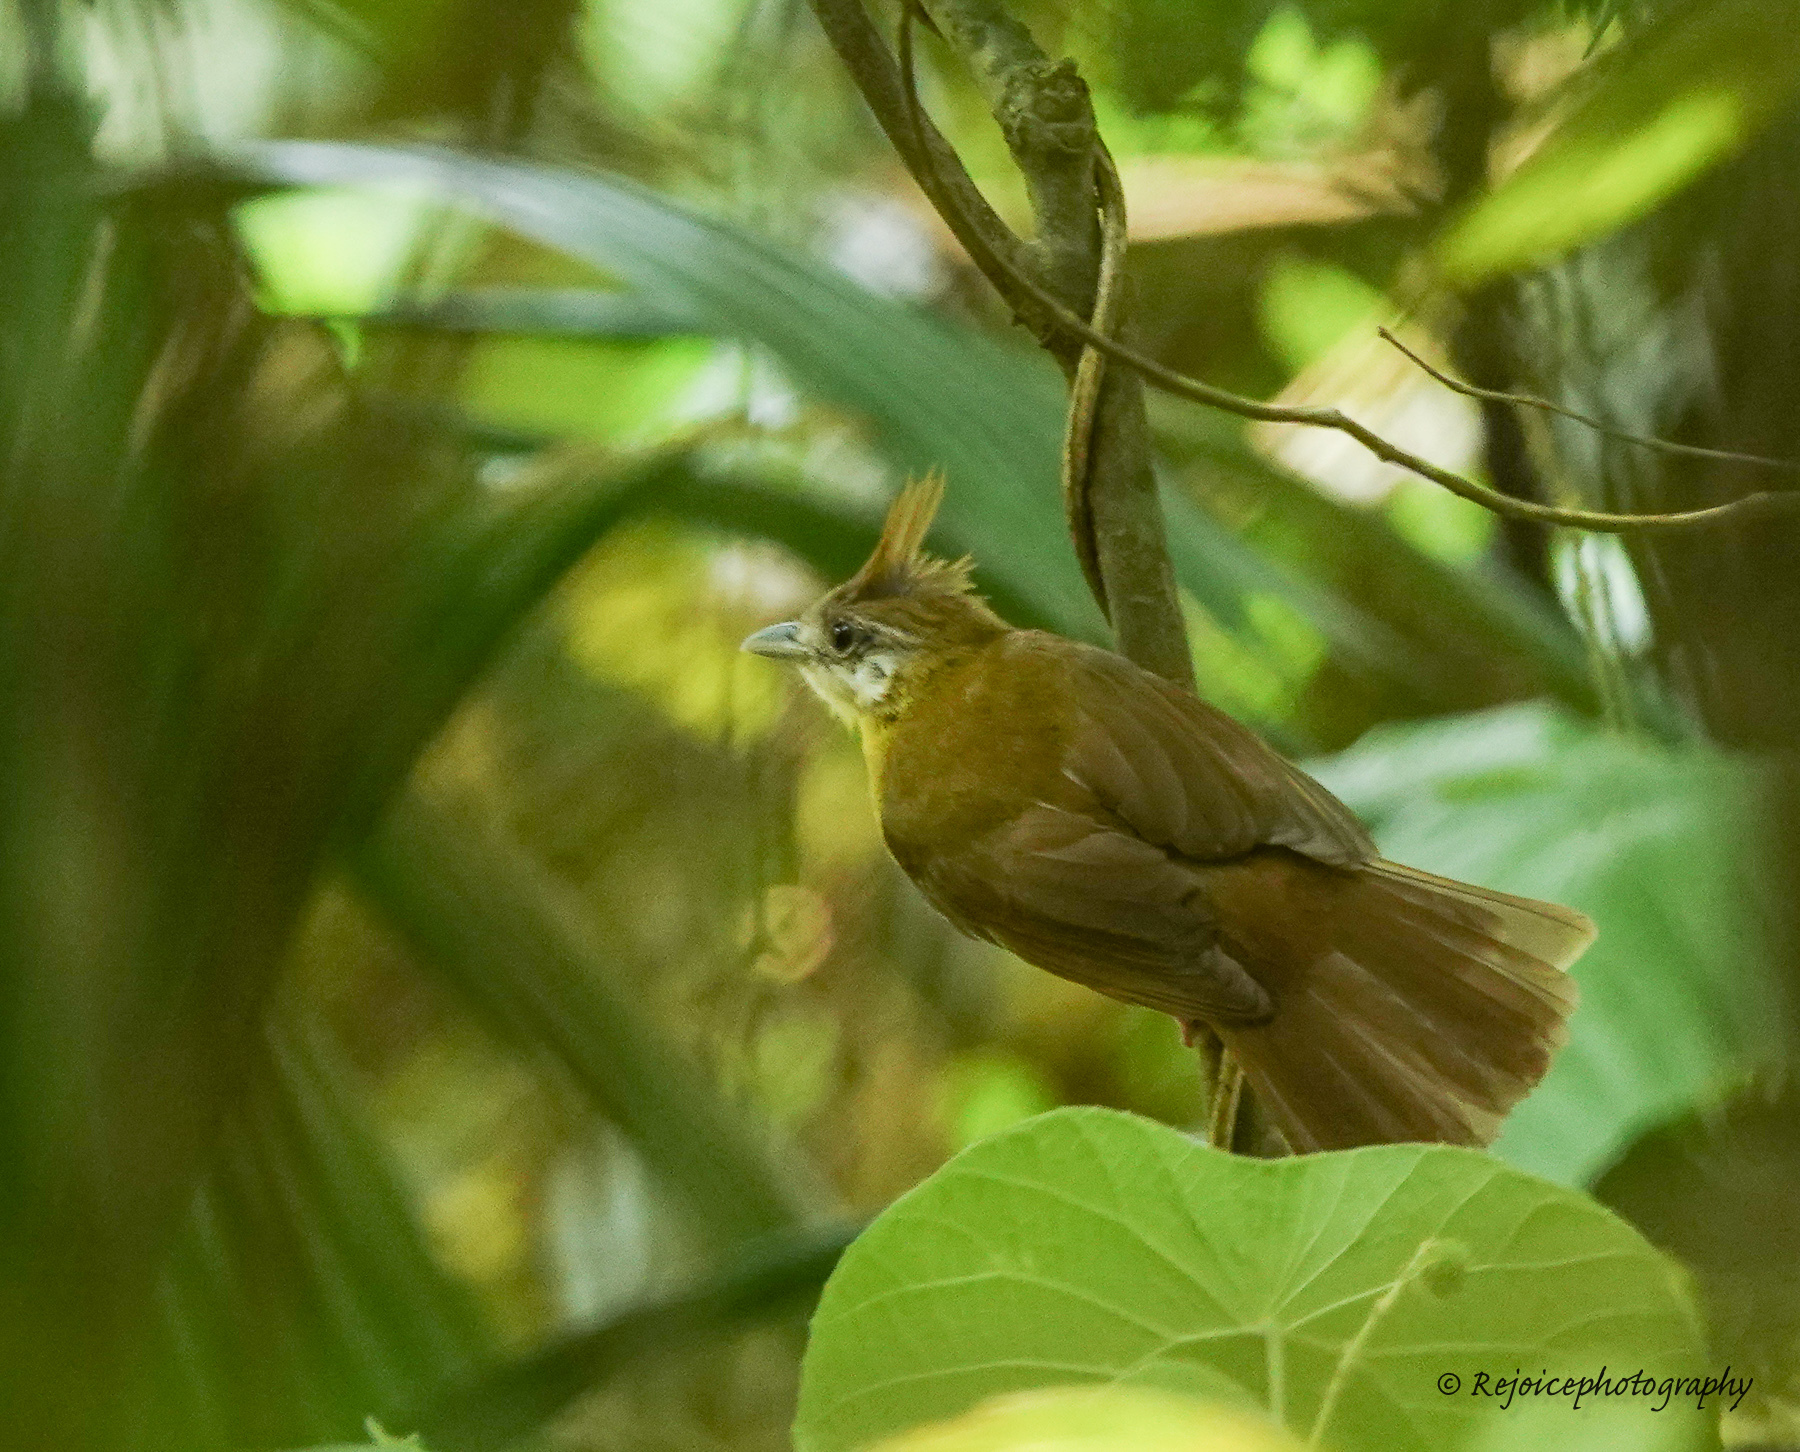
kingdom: Animalia
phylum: Chordata
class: Aves
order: Passeriformes
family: Pycnonotidae
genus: Alophoixus
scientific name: Alophoixus flaveolus
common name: White-throated bulbul
